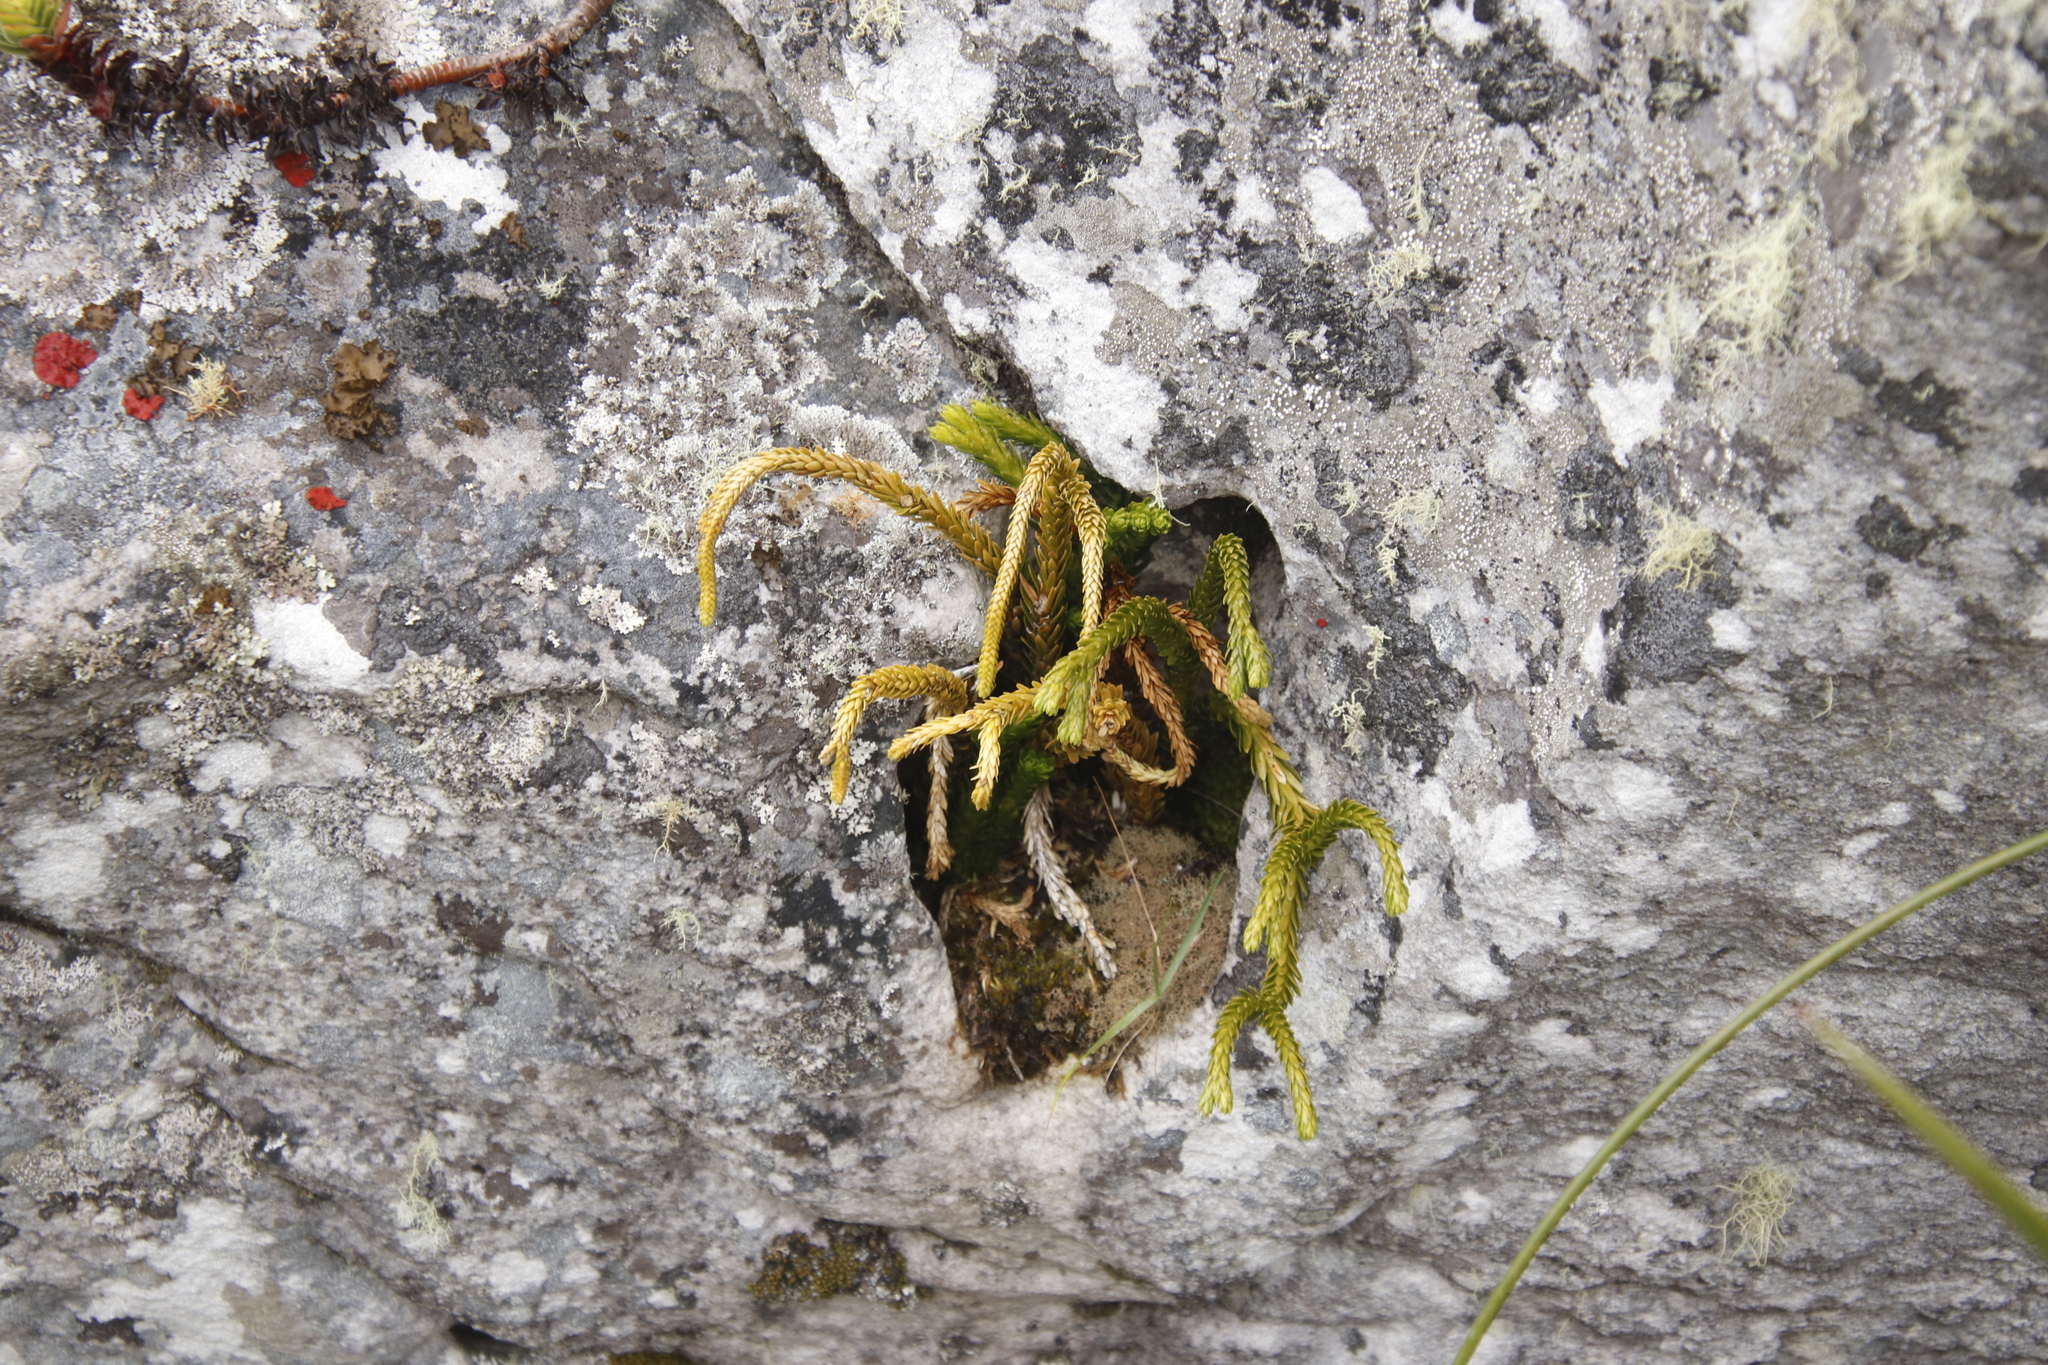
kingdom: Plantae
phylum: Tracheophyta
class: Lycopodiopsida
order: Lycopodiales
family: Lycopodiaceae
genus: Phlegmariurus
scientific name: Phlegmariurus gnidioides
